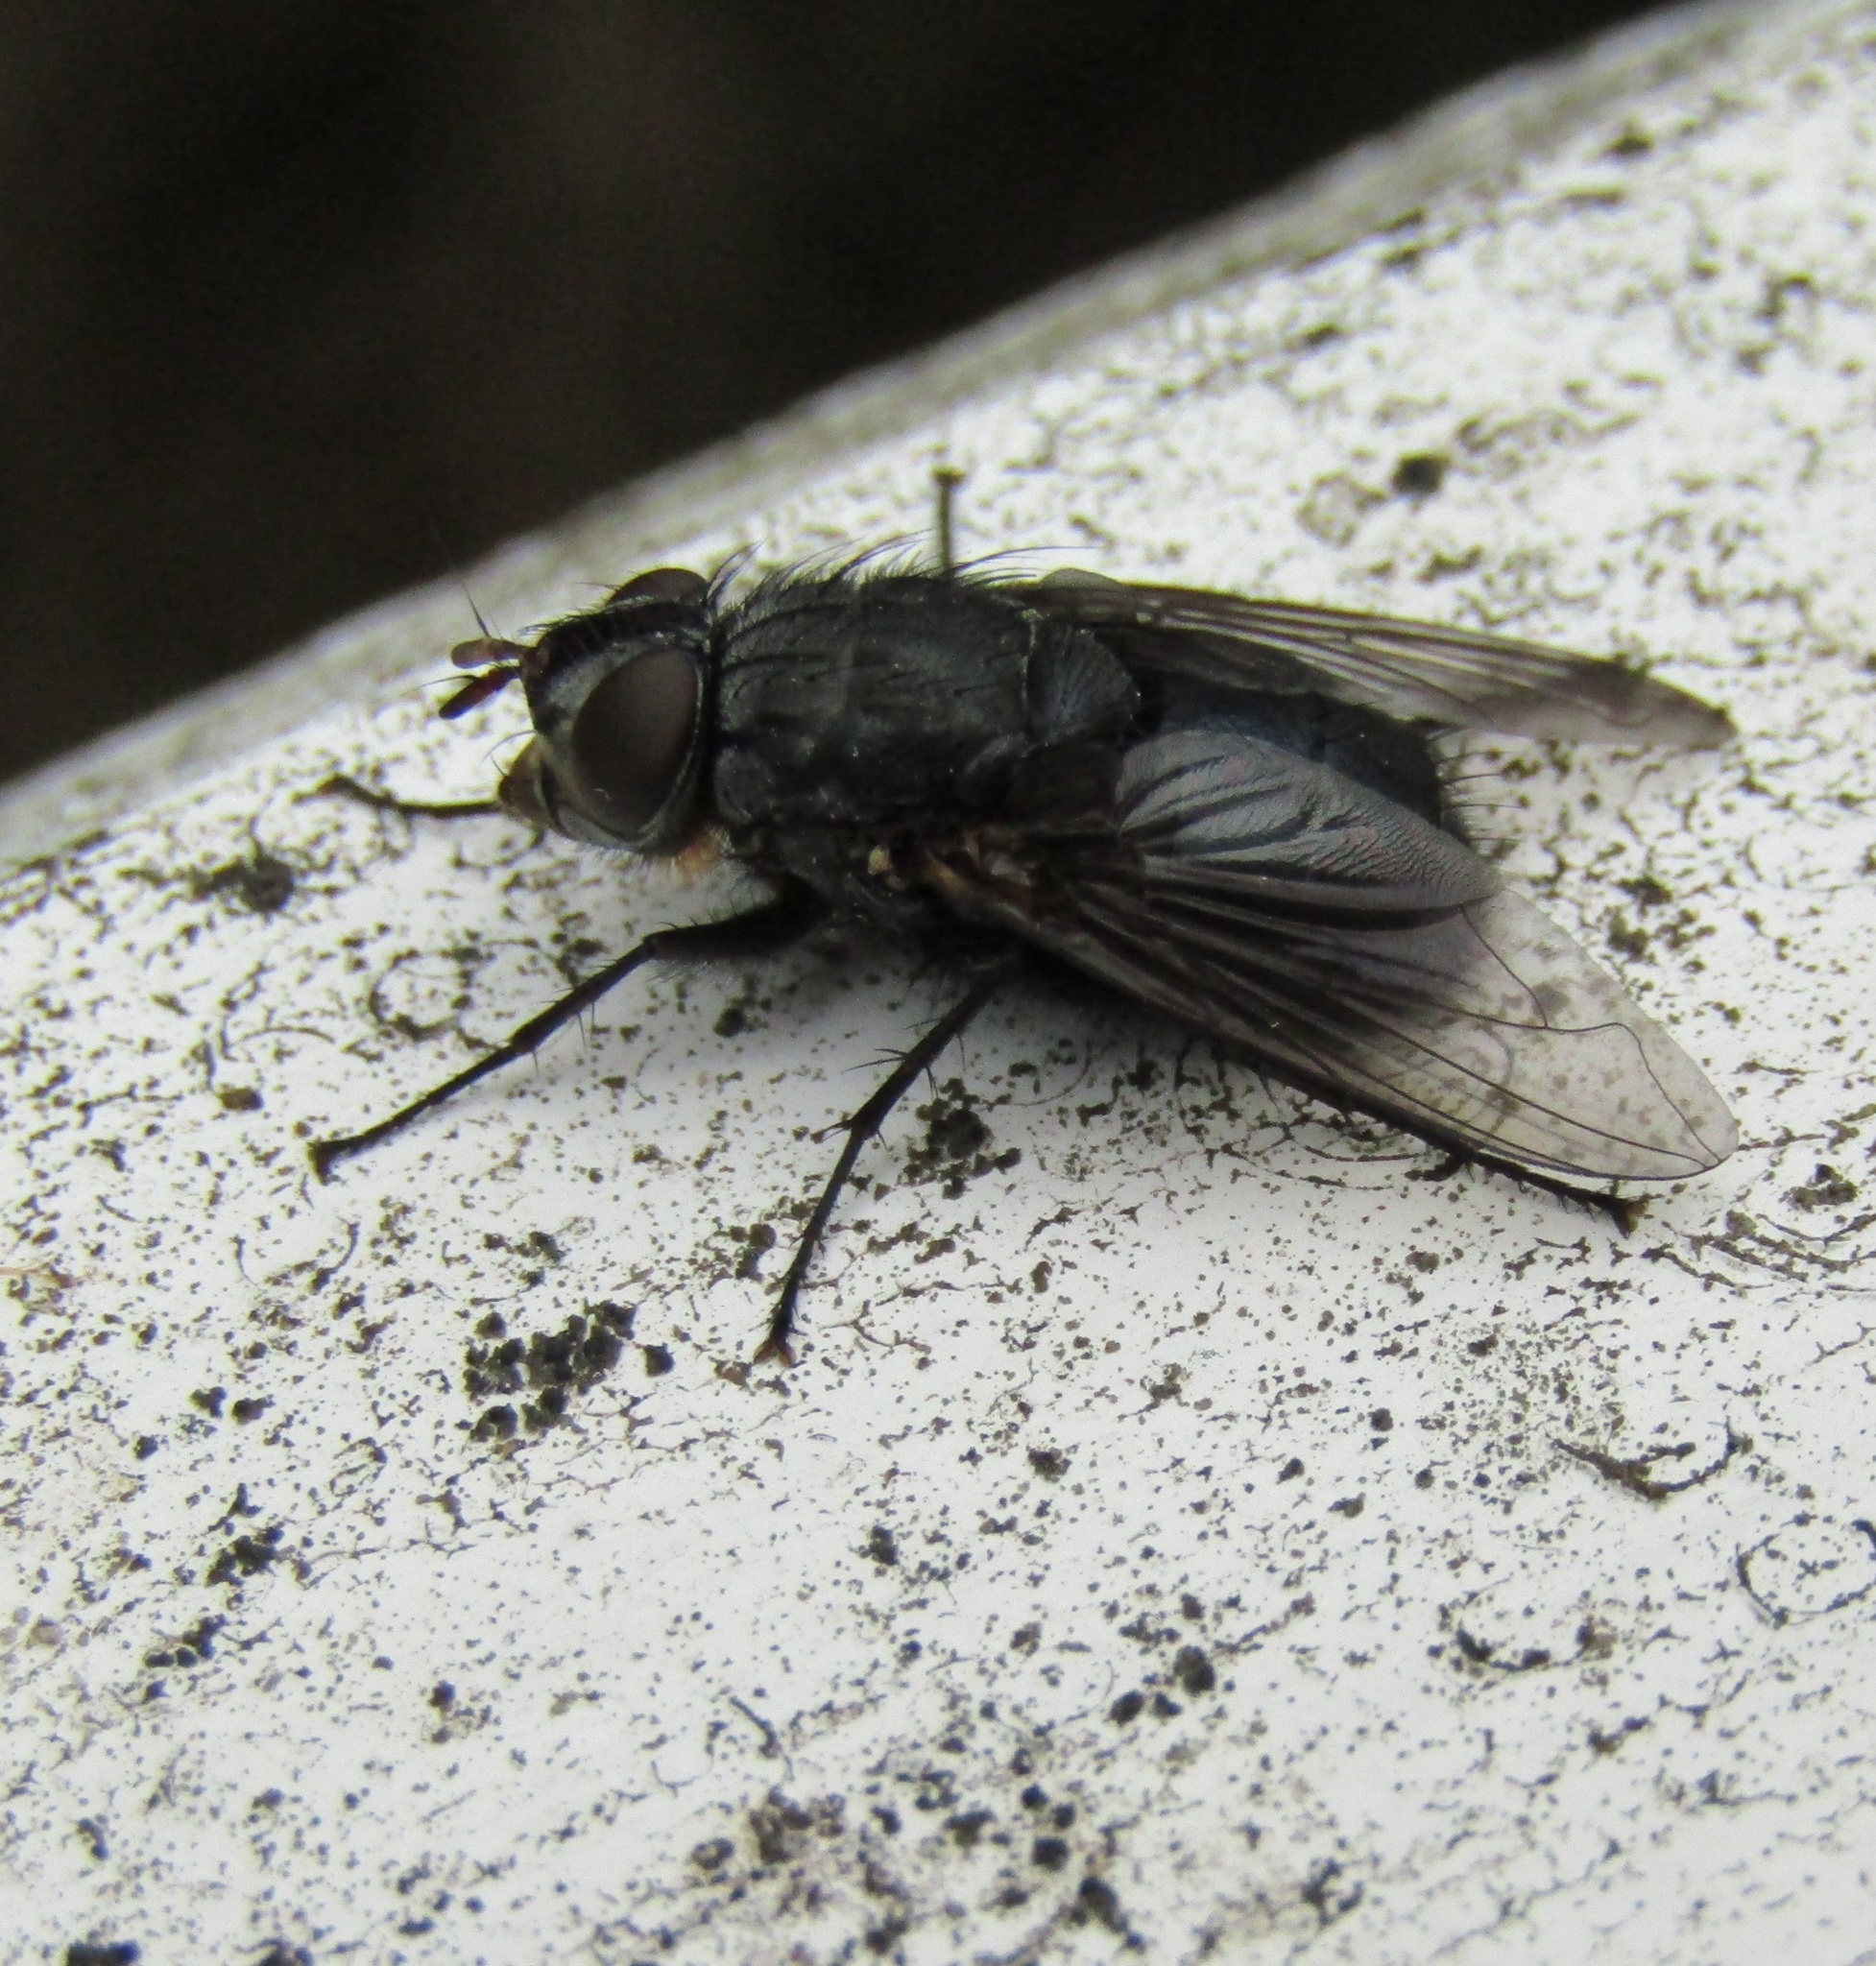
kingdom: Animalia
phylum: Arthropoda
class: Insecta
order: Diptera
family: Calliphoridae
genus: Calliphora
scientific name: Calliphora vicina
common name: Common blow flie
